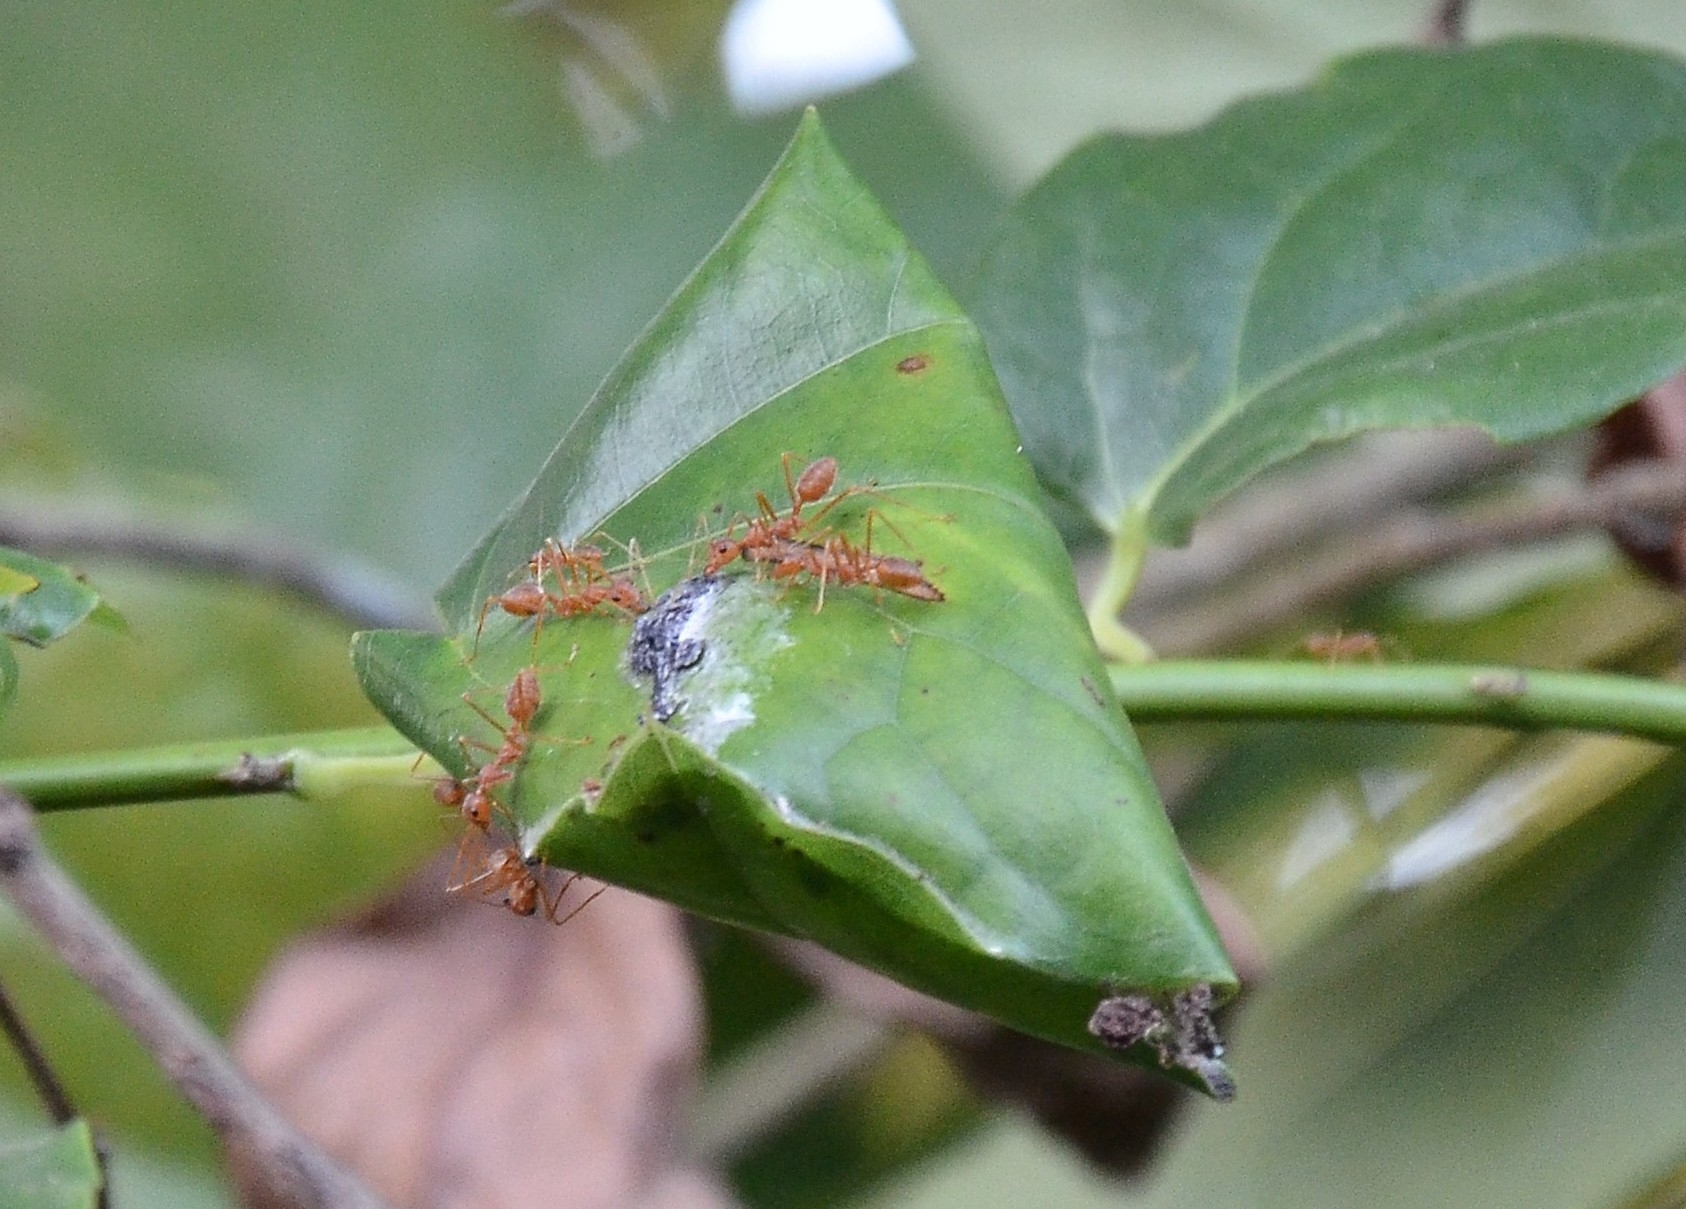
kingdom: Animalia
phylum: Arthropoda
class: Insecta
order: Hymenoptera
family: Formicidae
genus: Oecophylla
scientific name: Oecophylla smaragdina
